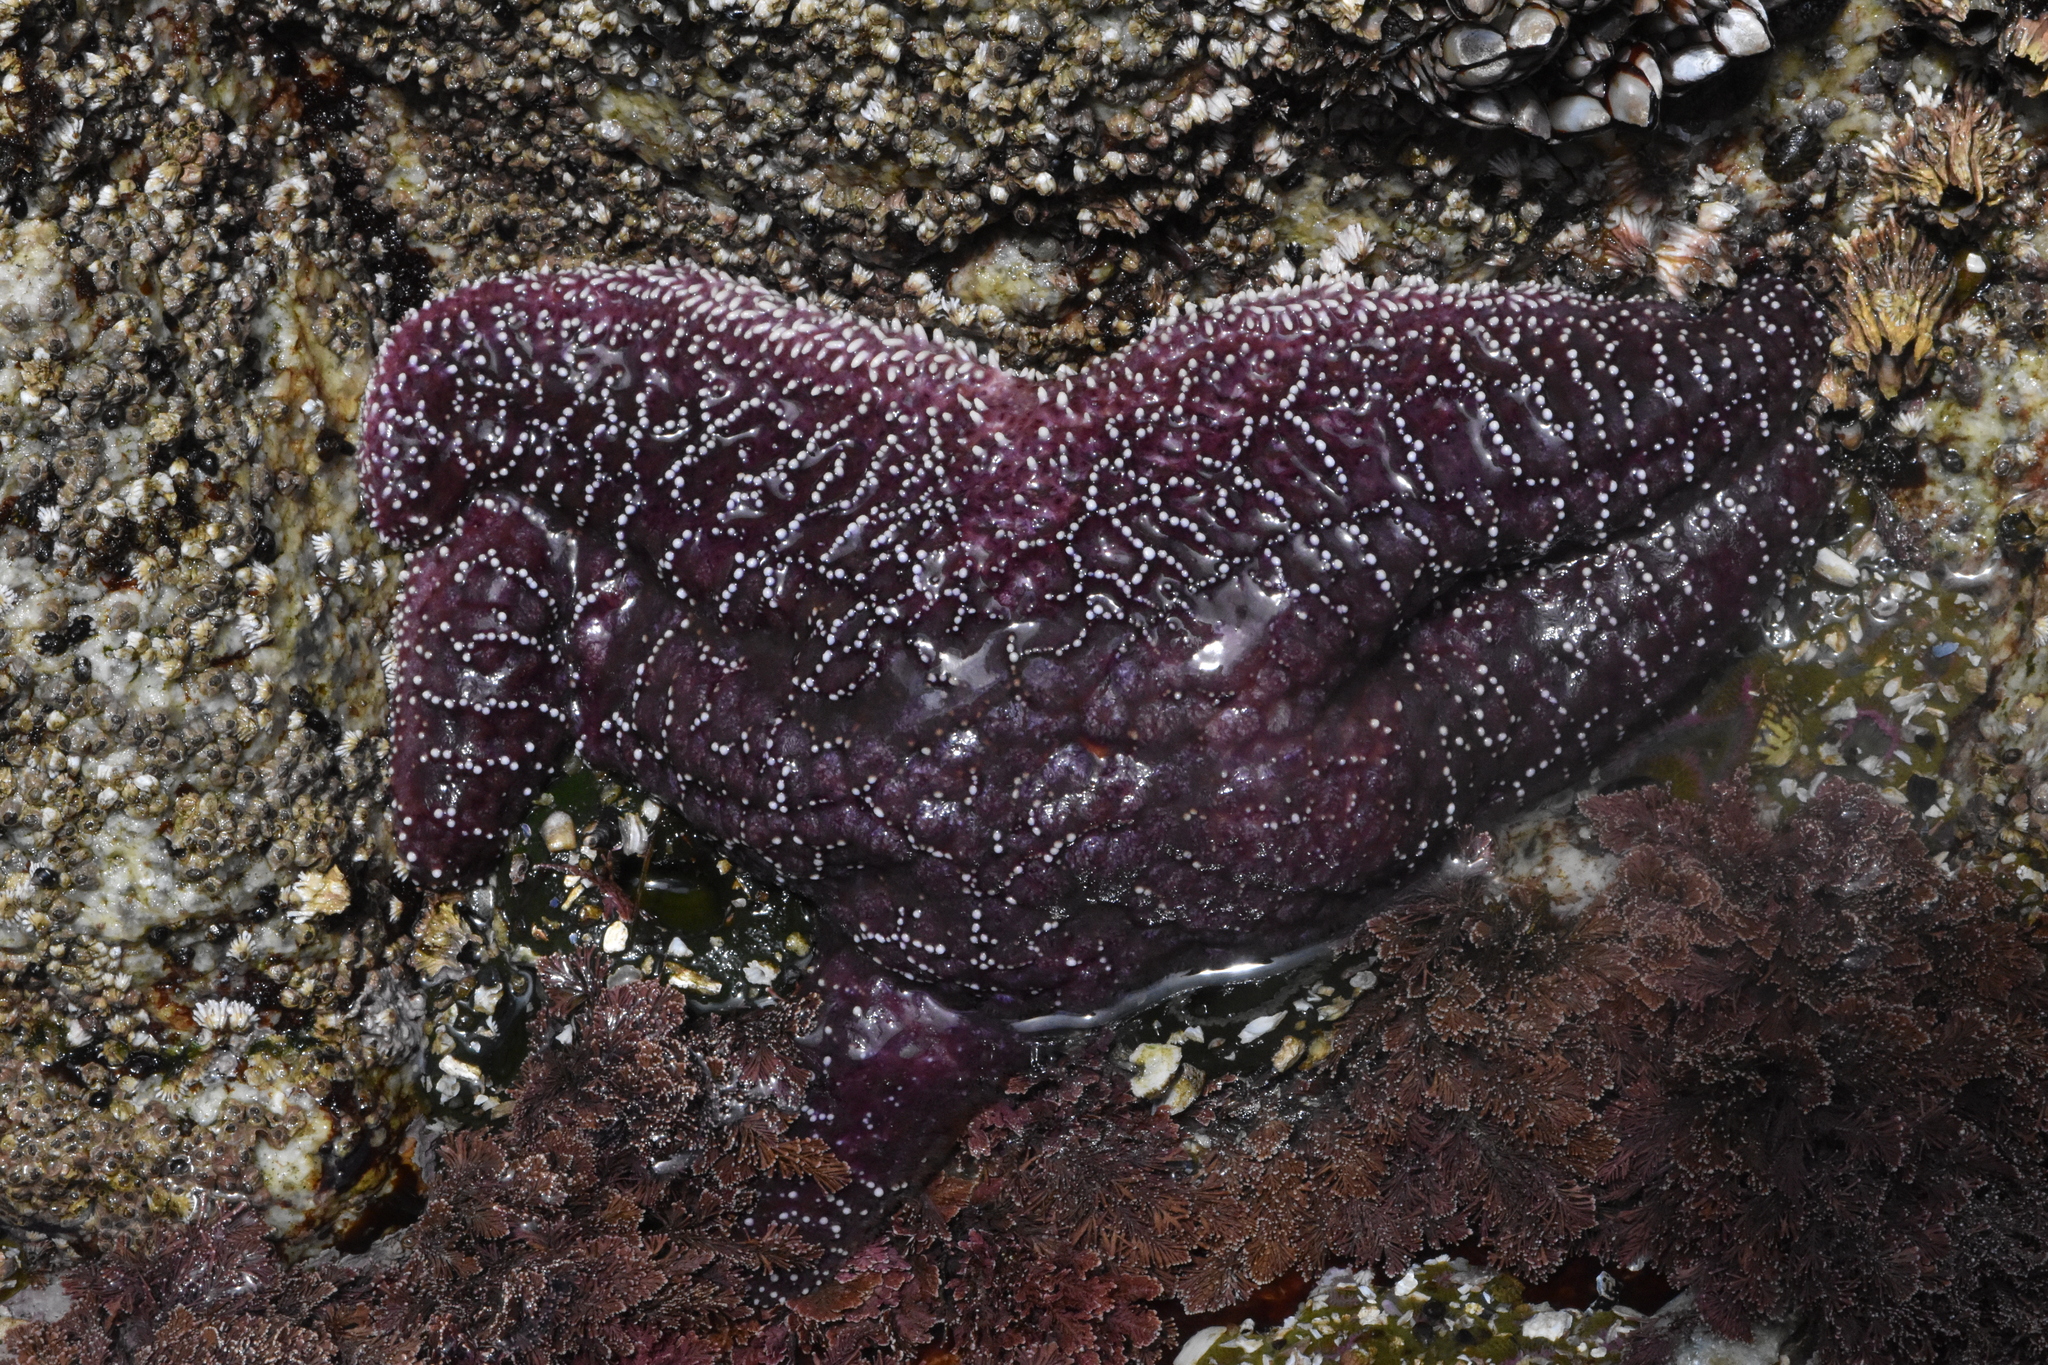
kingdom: Animalia
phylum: Echinodermata
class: Asteroidea
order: Forcipulatida
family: Asteriidae
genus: Pisaster
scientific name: Pisaster ochraceus
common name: Ochre stars
